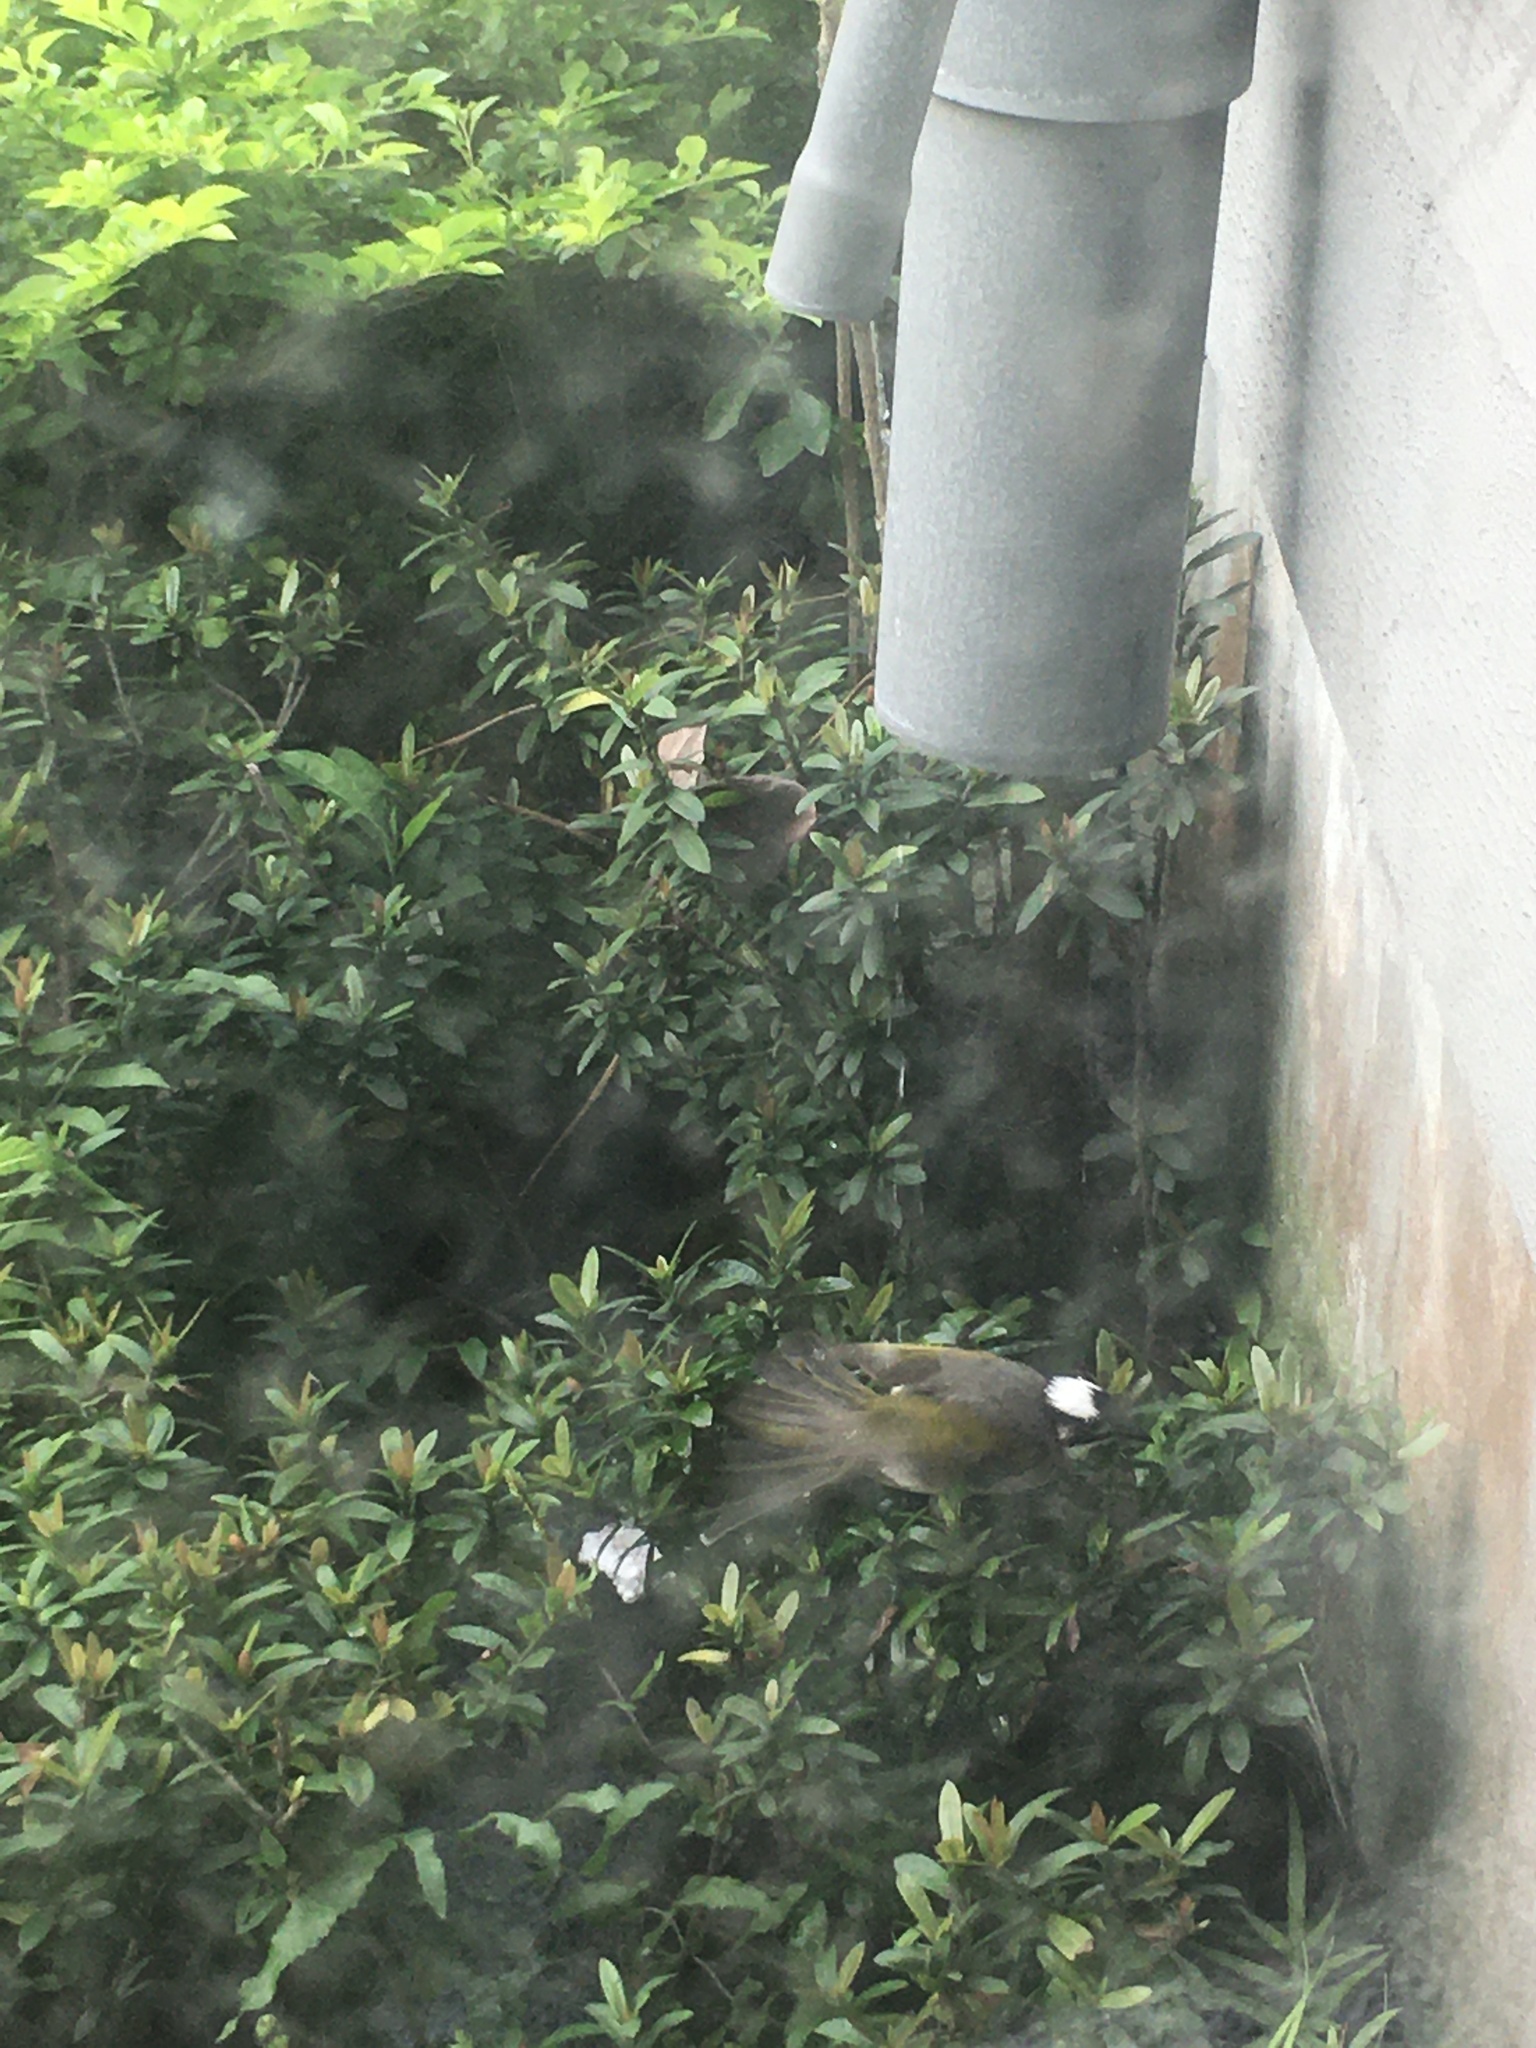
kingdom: Animalia
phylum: Chordata
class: Aves
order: Passeriformes
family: Pycnonotidae
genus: Pycnonotus
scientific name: Pycnonotus sinensis
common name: Light-vented bulbul
